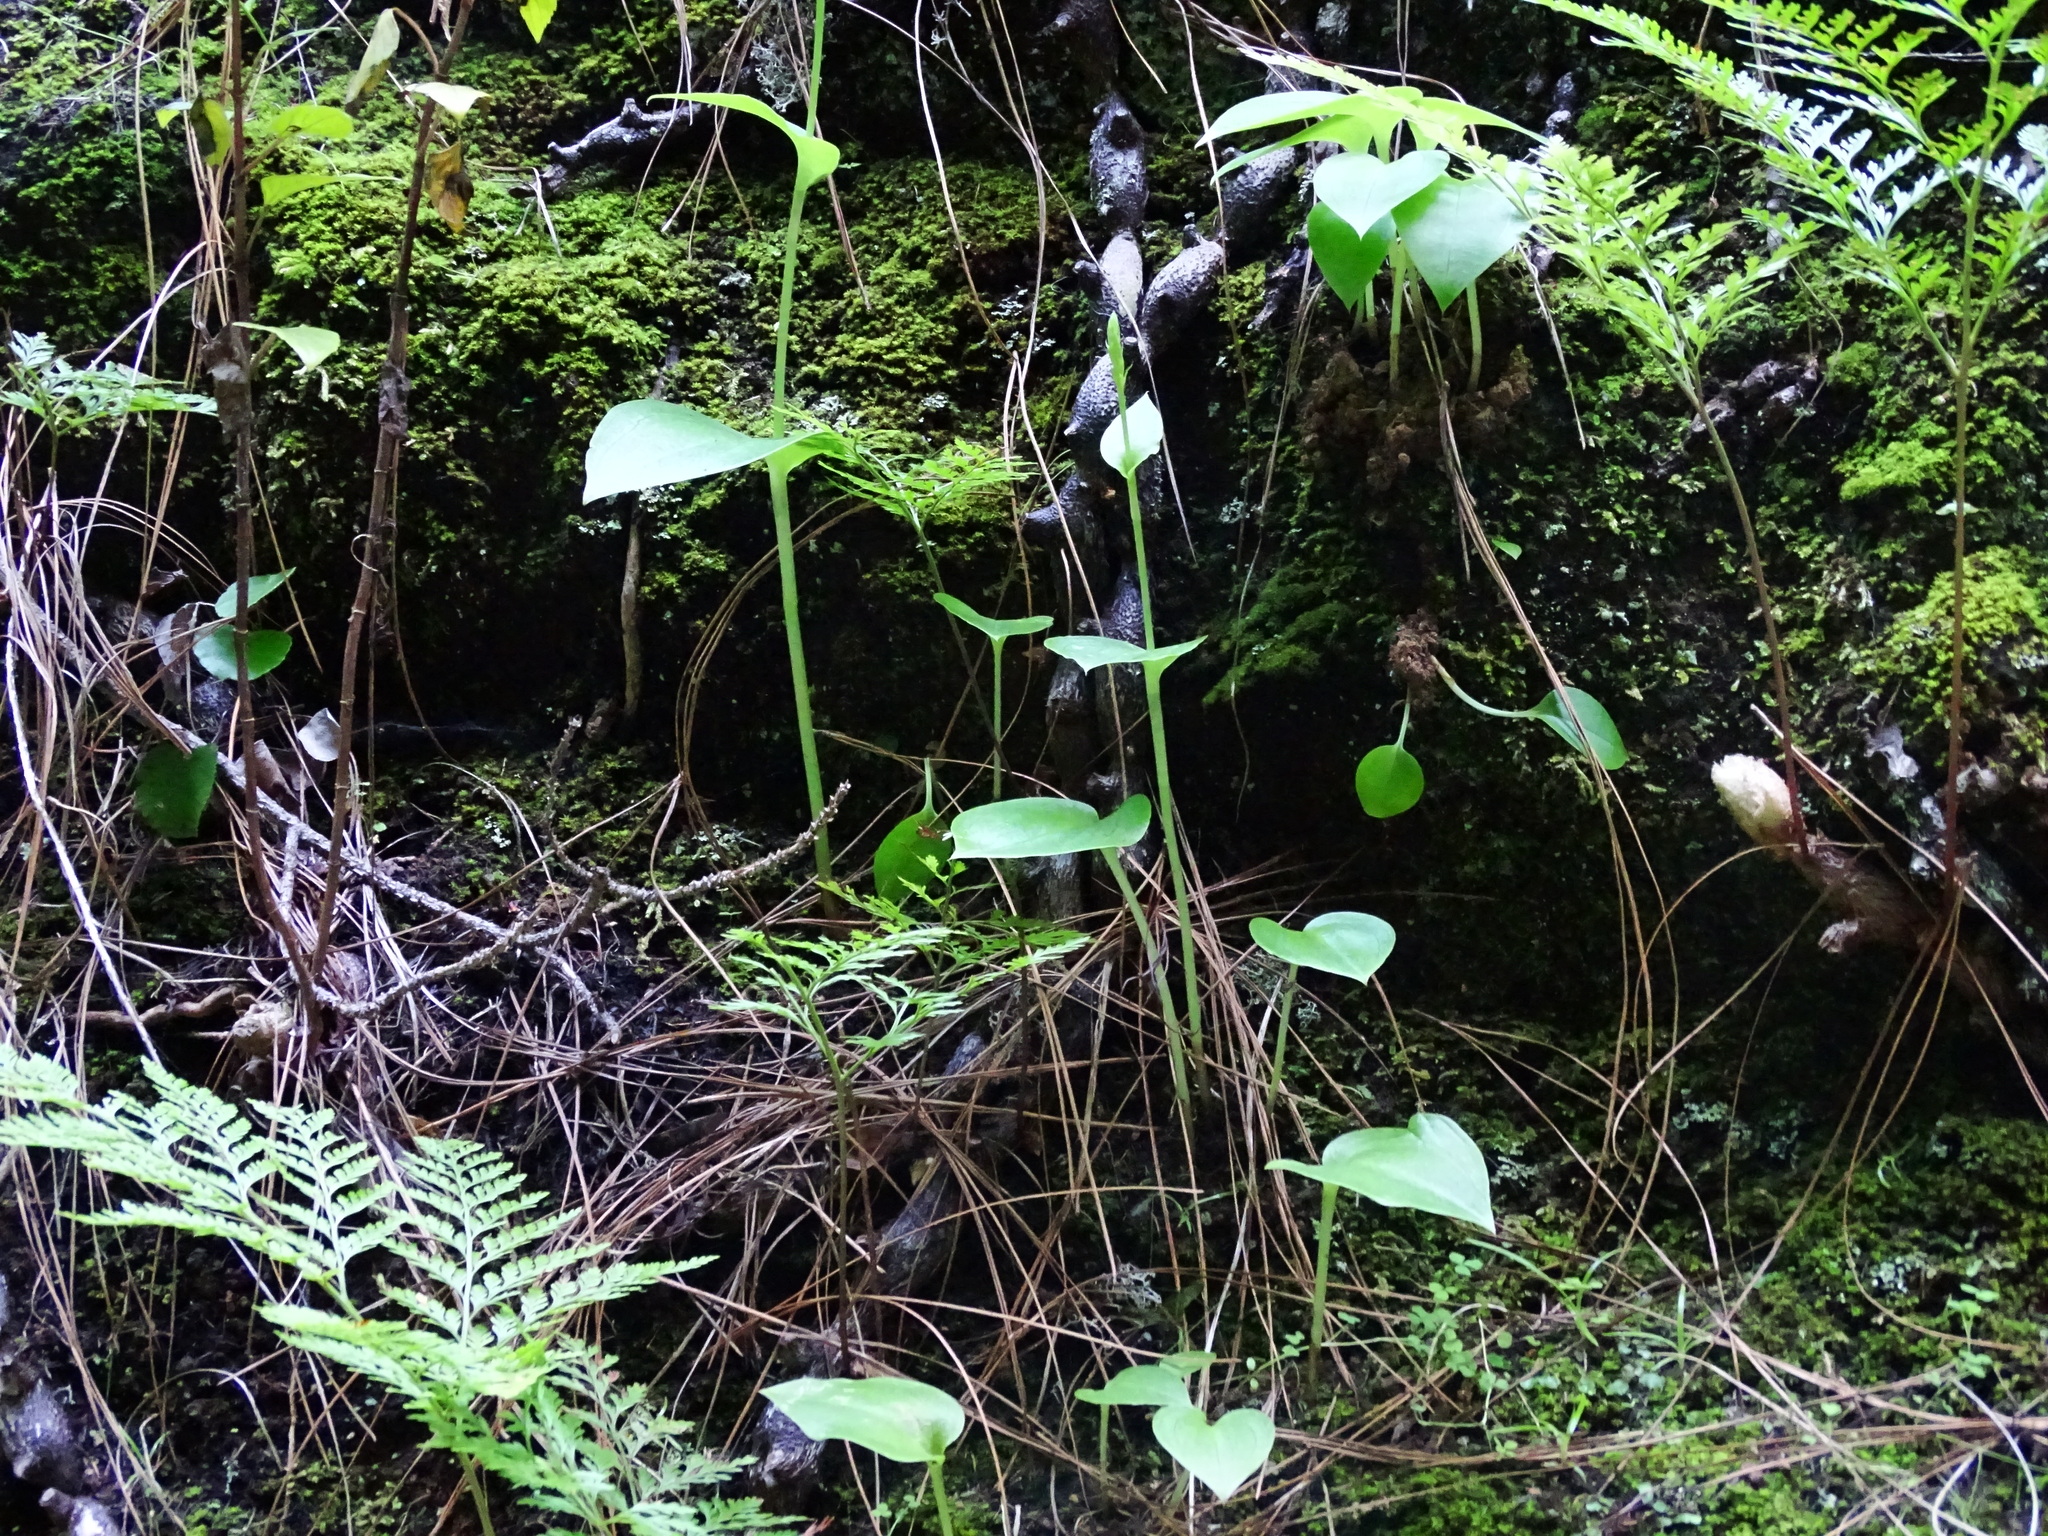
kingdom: Plantae
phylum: Tracheophyta
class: Liliopsida
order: Asparagales
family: Orchidaceae
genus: Gennaria
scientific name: Gennaria diphylla
